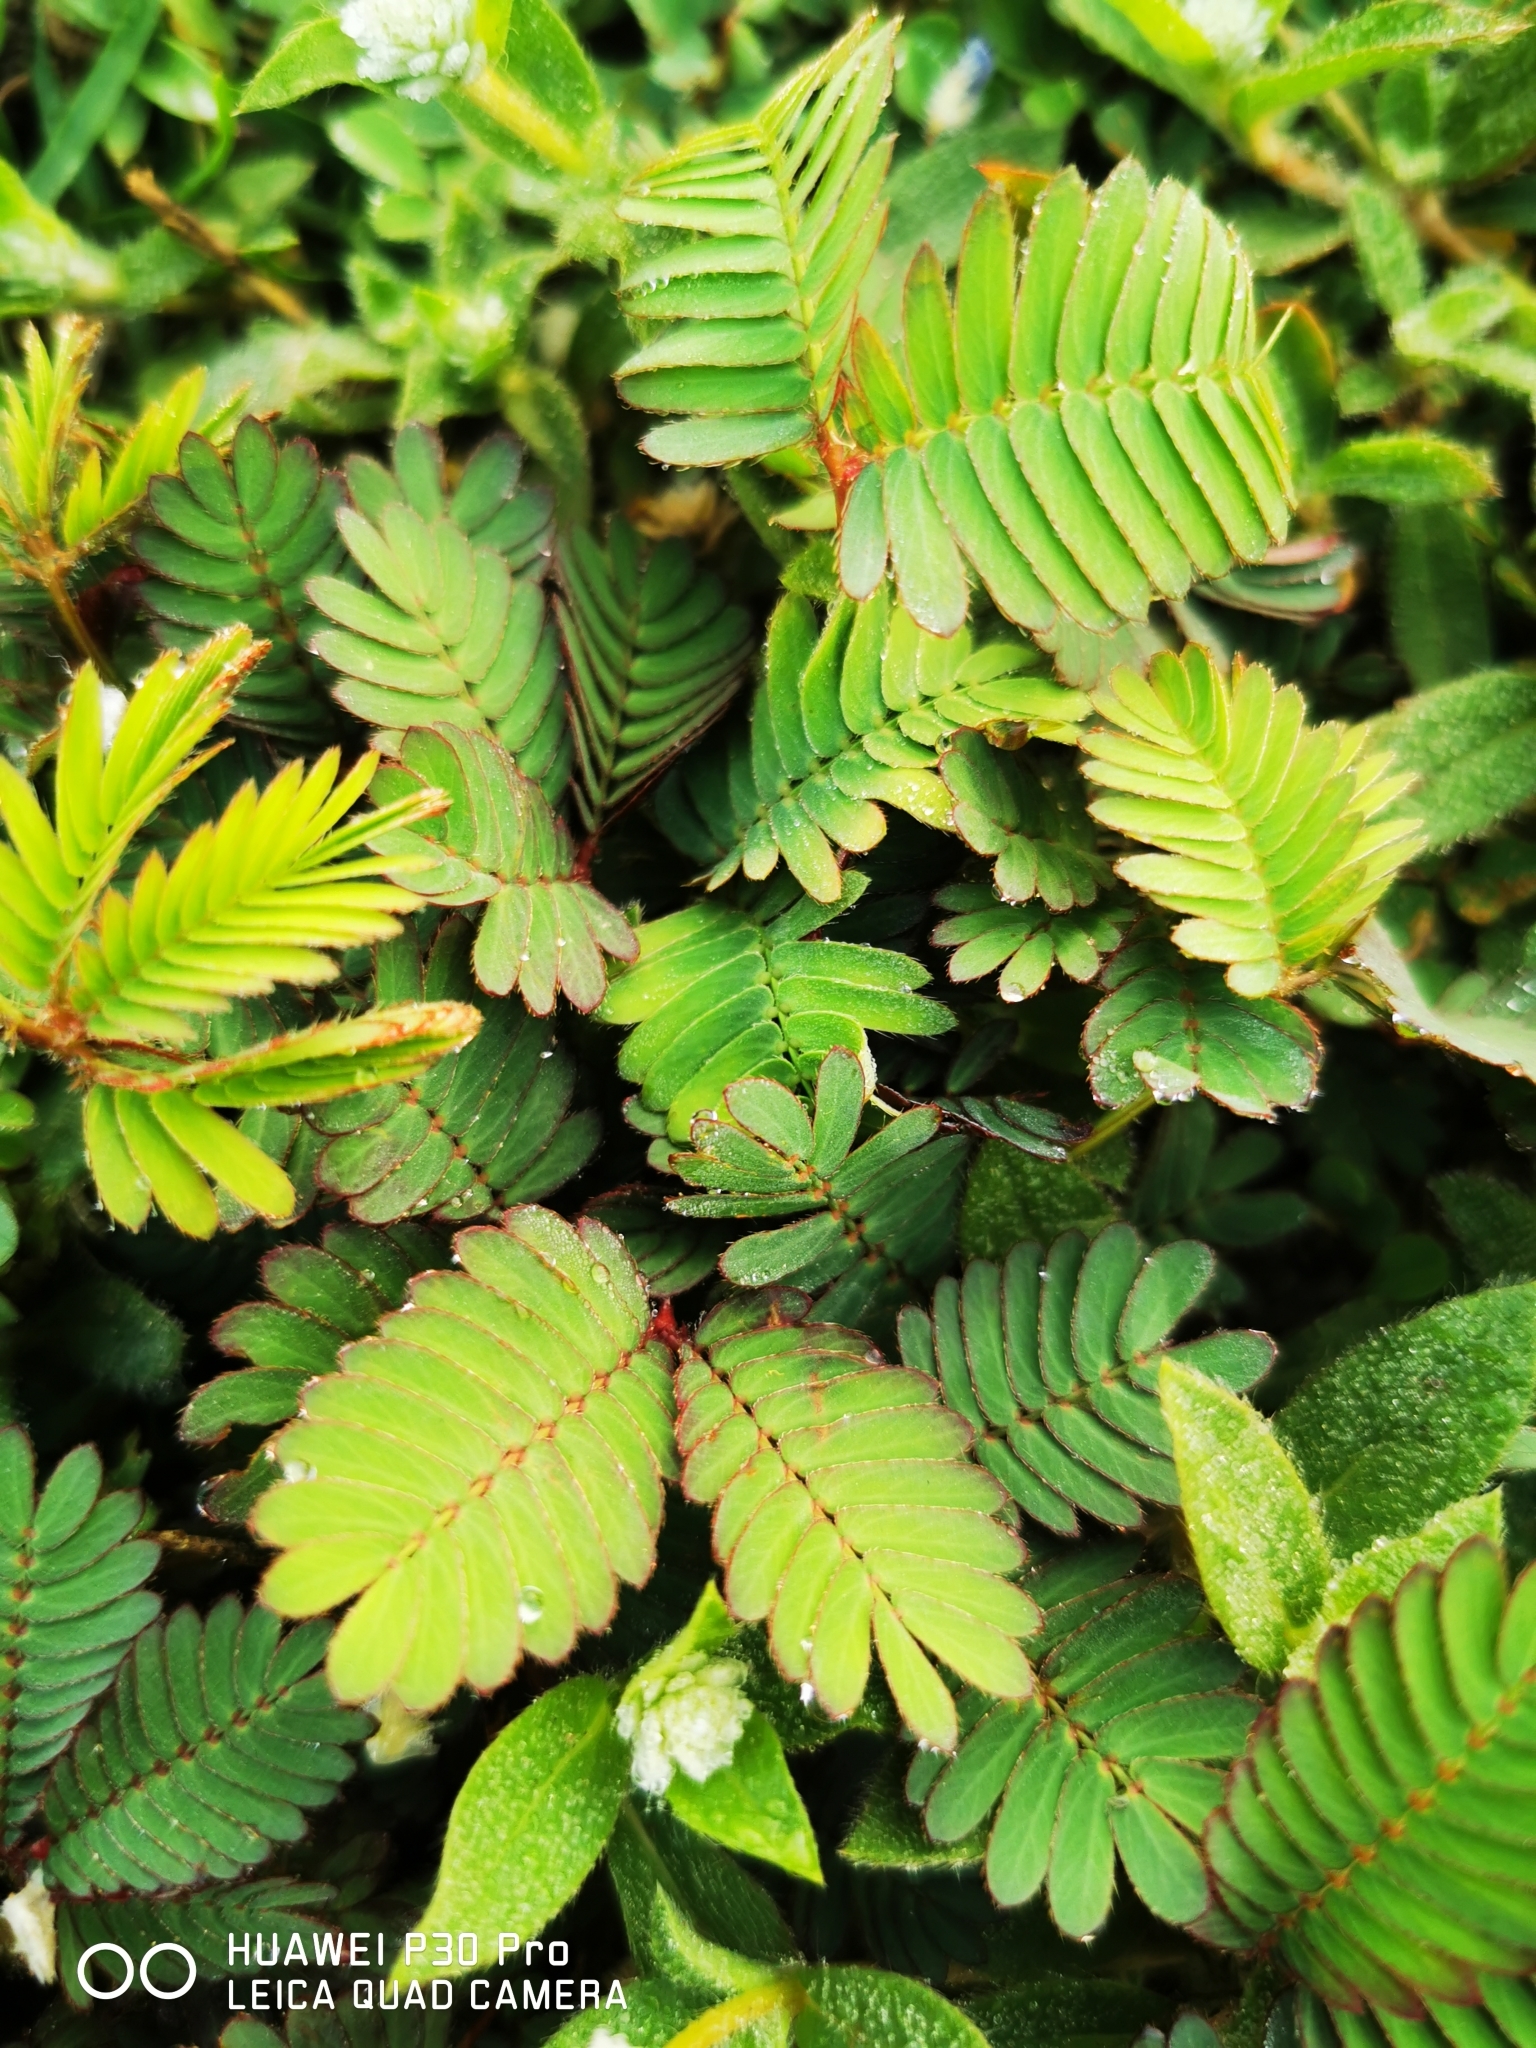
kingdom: Plantae
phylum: Tracheophyta
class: Magnoliopsida
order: Fabales
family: Fabaceae
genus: Mimosa
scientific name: Mimosa pudica
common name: Sensitive plant
